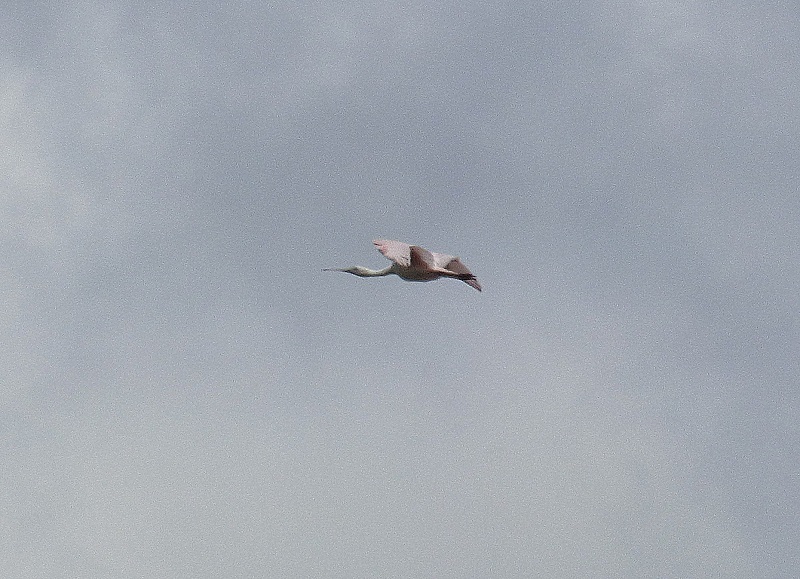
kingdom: Animalia
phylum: Chordata
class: Aves
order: Pelecaniformes
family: Threskiornithidae
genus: Platalea
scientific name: Platalea ajaja
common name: Roseate spoonbill
